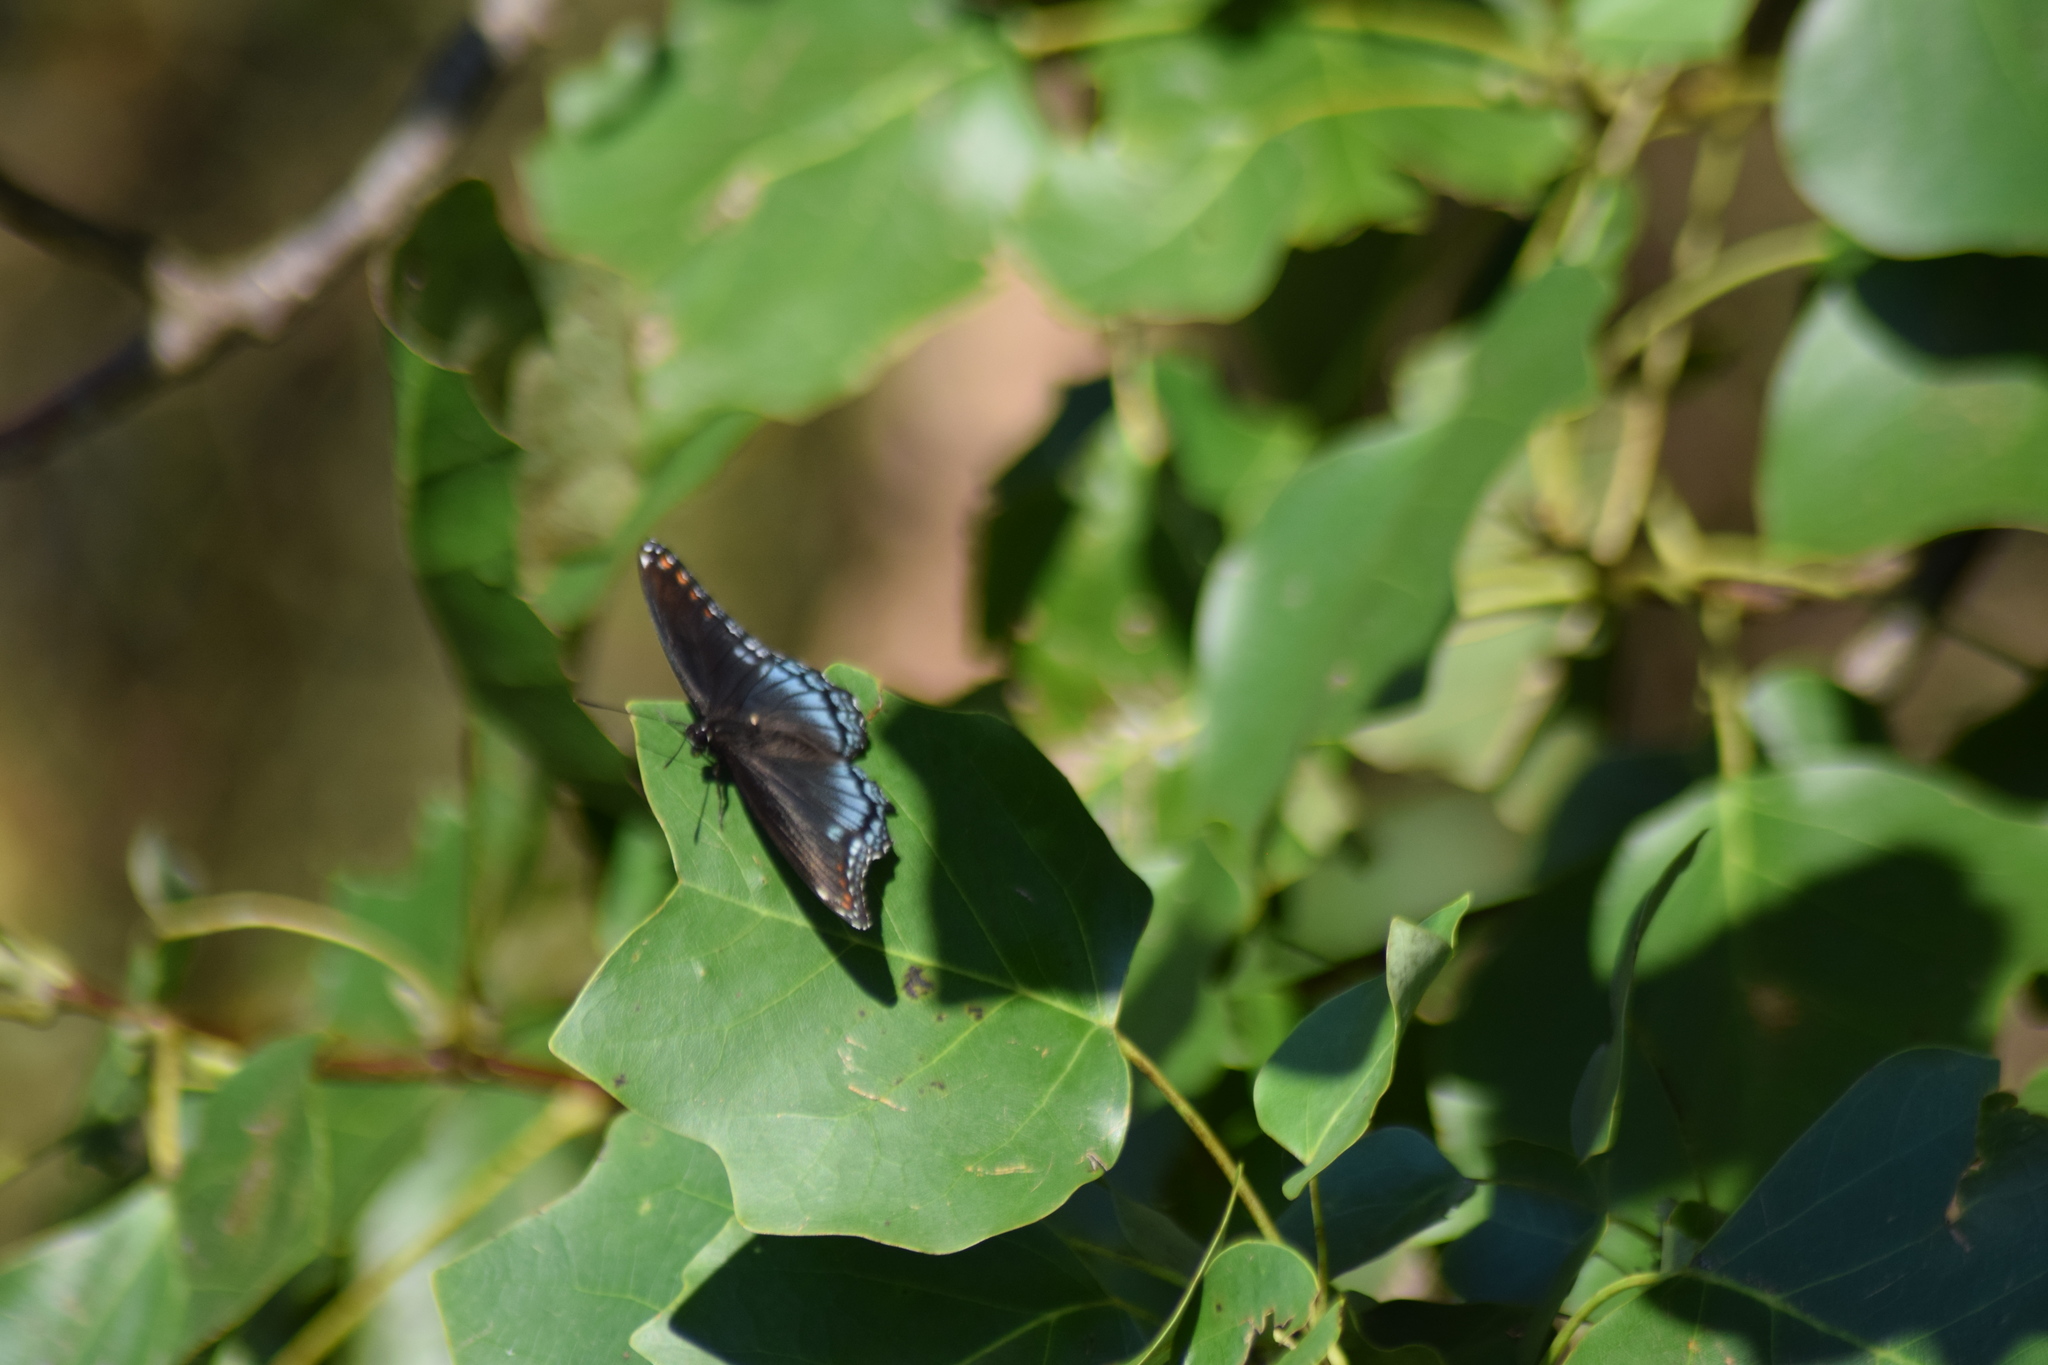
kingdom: Animalia
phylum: Arthropoda
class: Insecta
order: Lepidoptera
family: Nymphalidae
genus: Limenitis
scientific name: Limenitis astyanax
